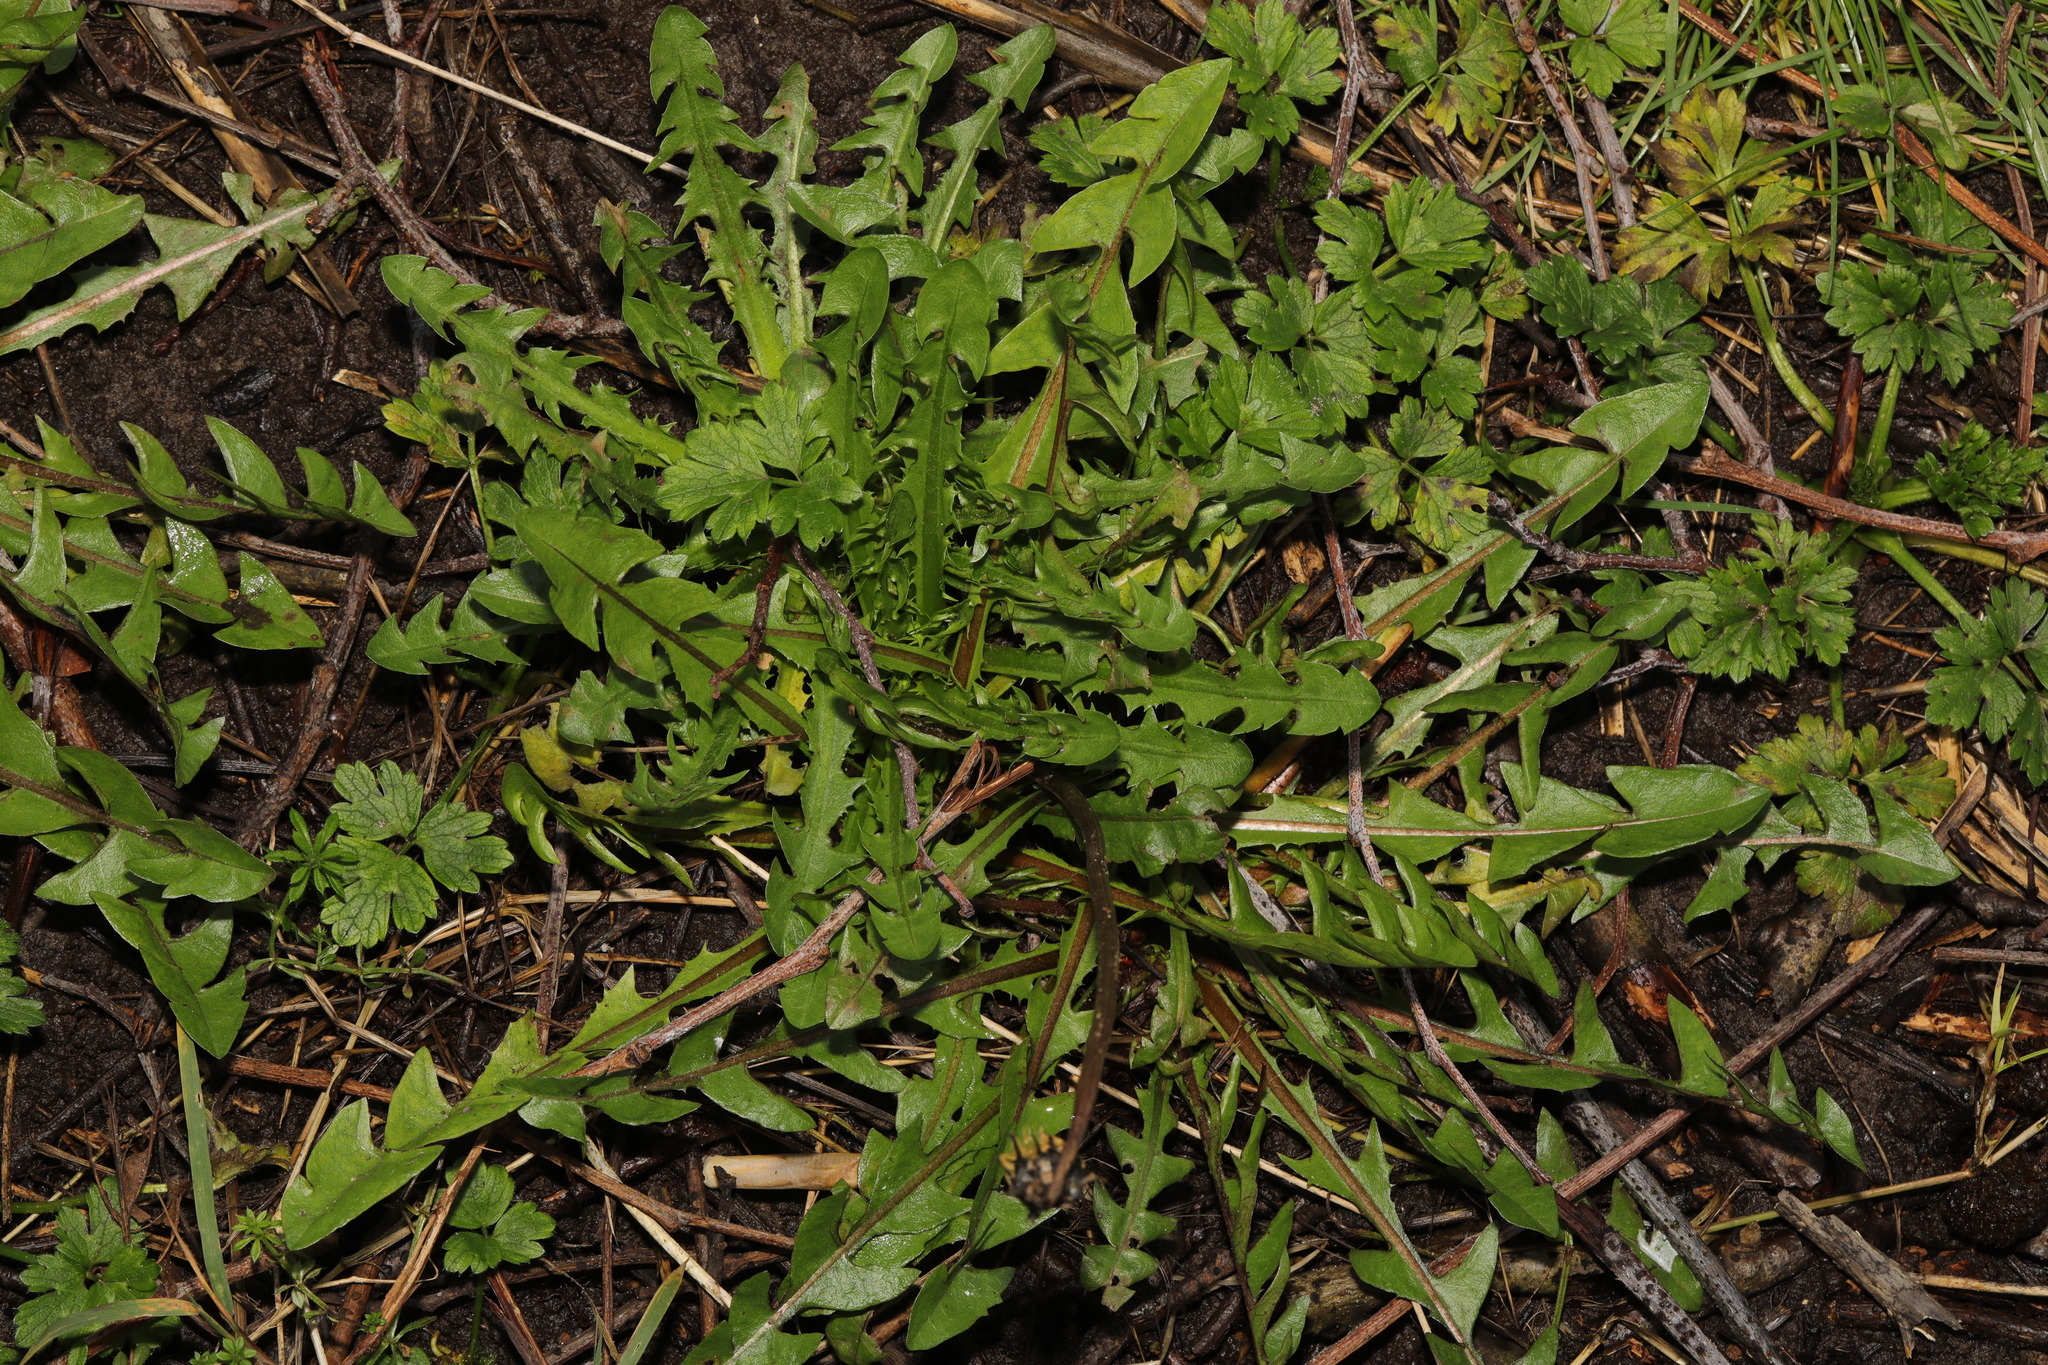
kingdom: Plantae
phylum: Tracheophyta
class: Magnoliopsida
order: Asterales
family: Asteraceae
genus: Taraxacum
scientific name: Taraxacum officinale
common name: Common dandelion
